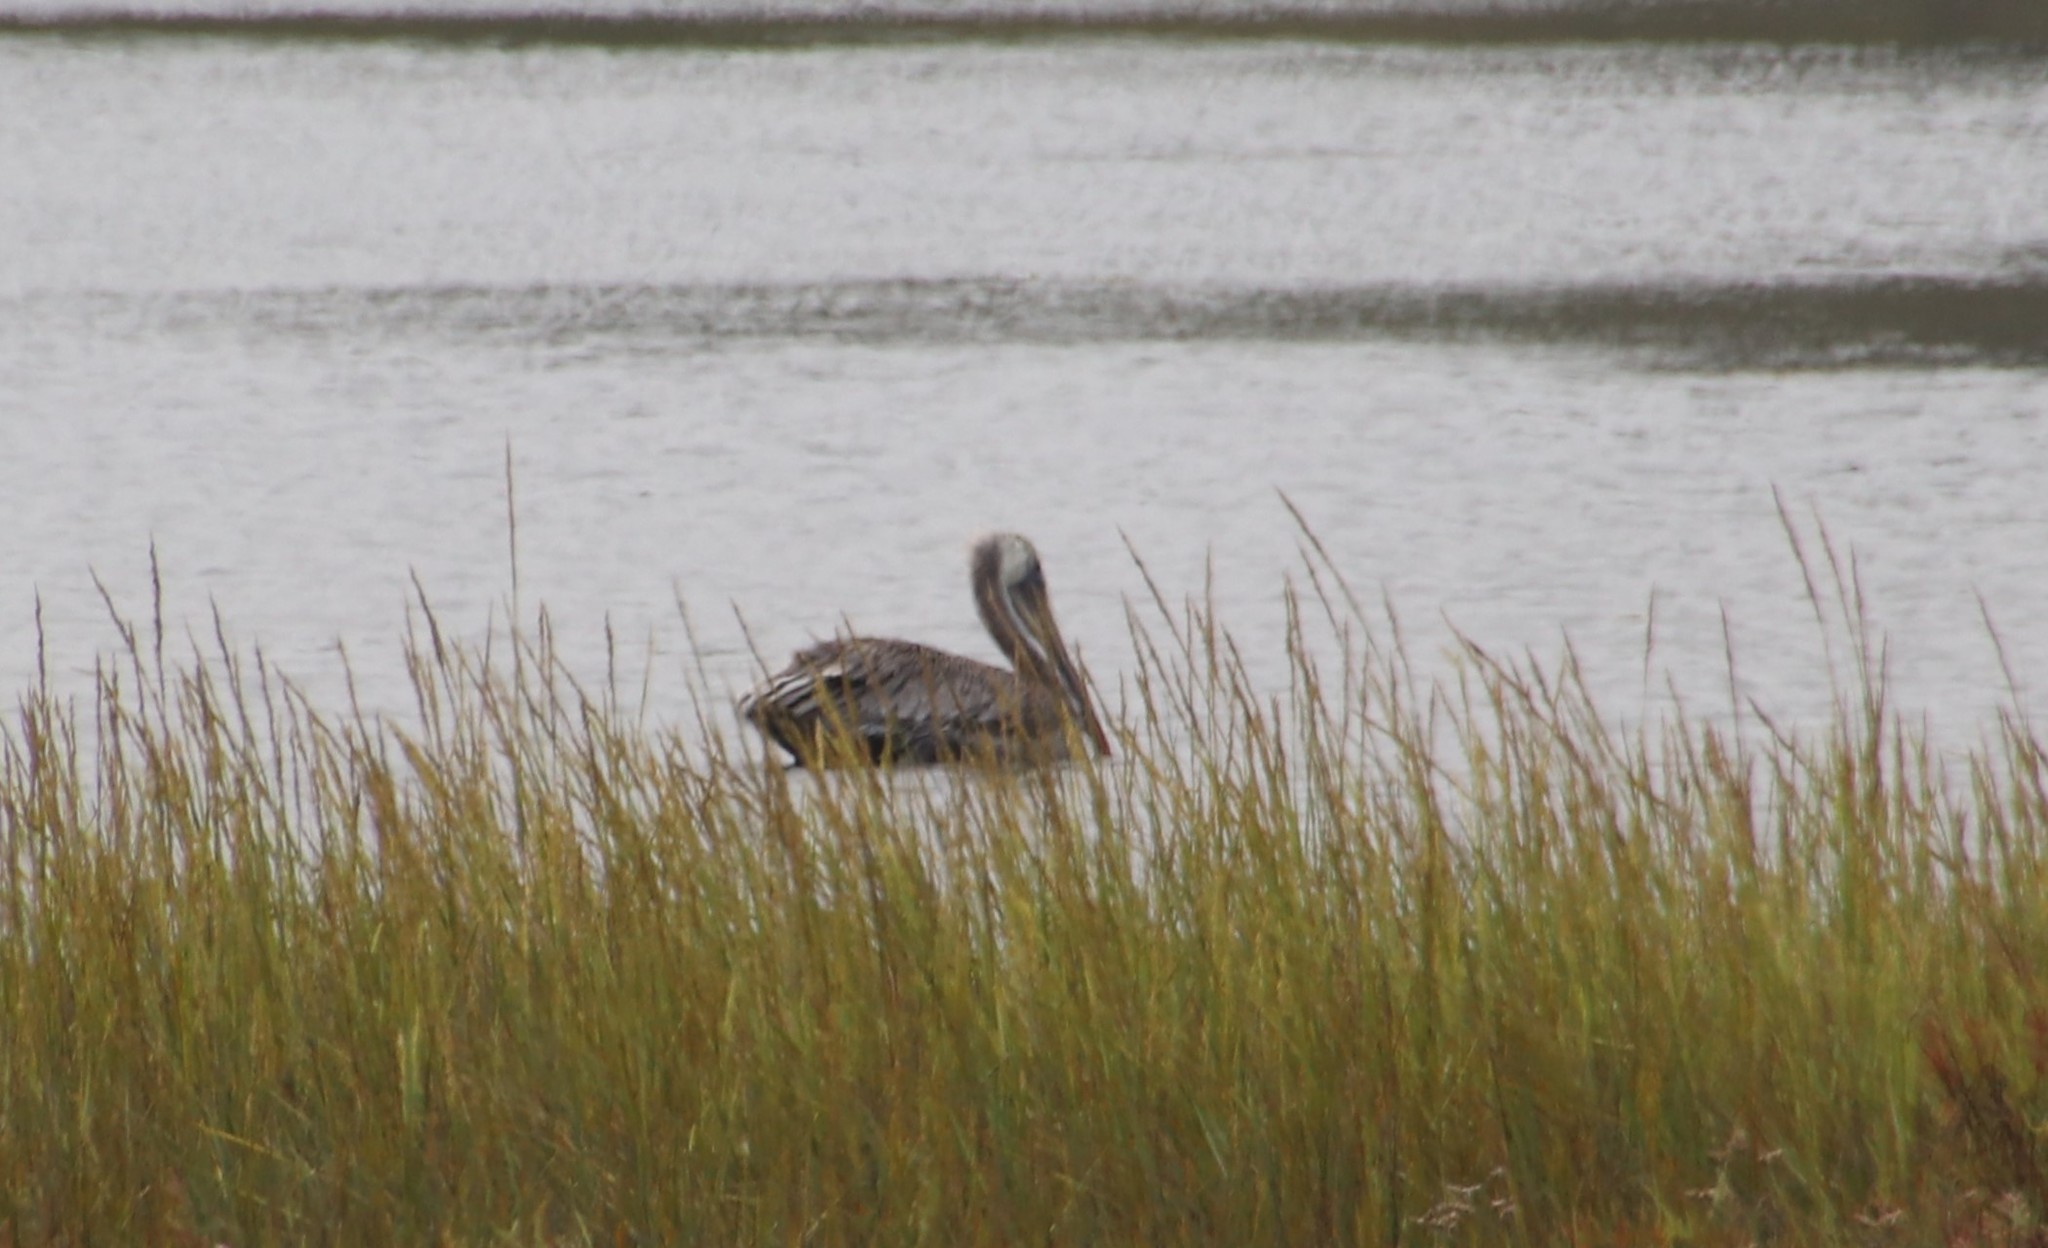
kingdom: Animalia
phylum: Chordata
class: Aves
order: Pelecaniformes
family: Pelecanidae
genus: Pelecanus
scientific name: Pelecanus occidentalis
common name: Brown pelican
